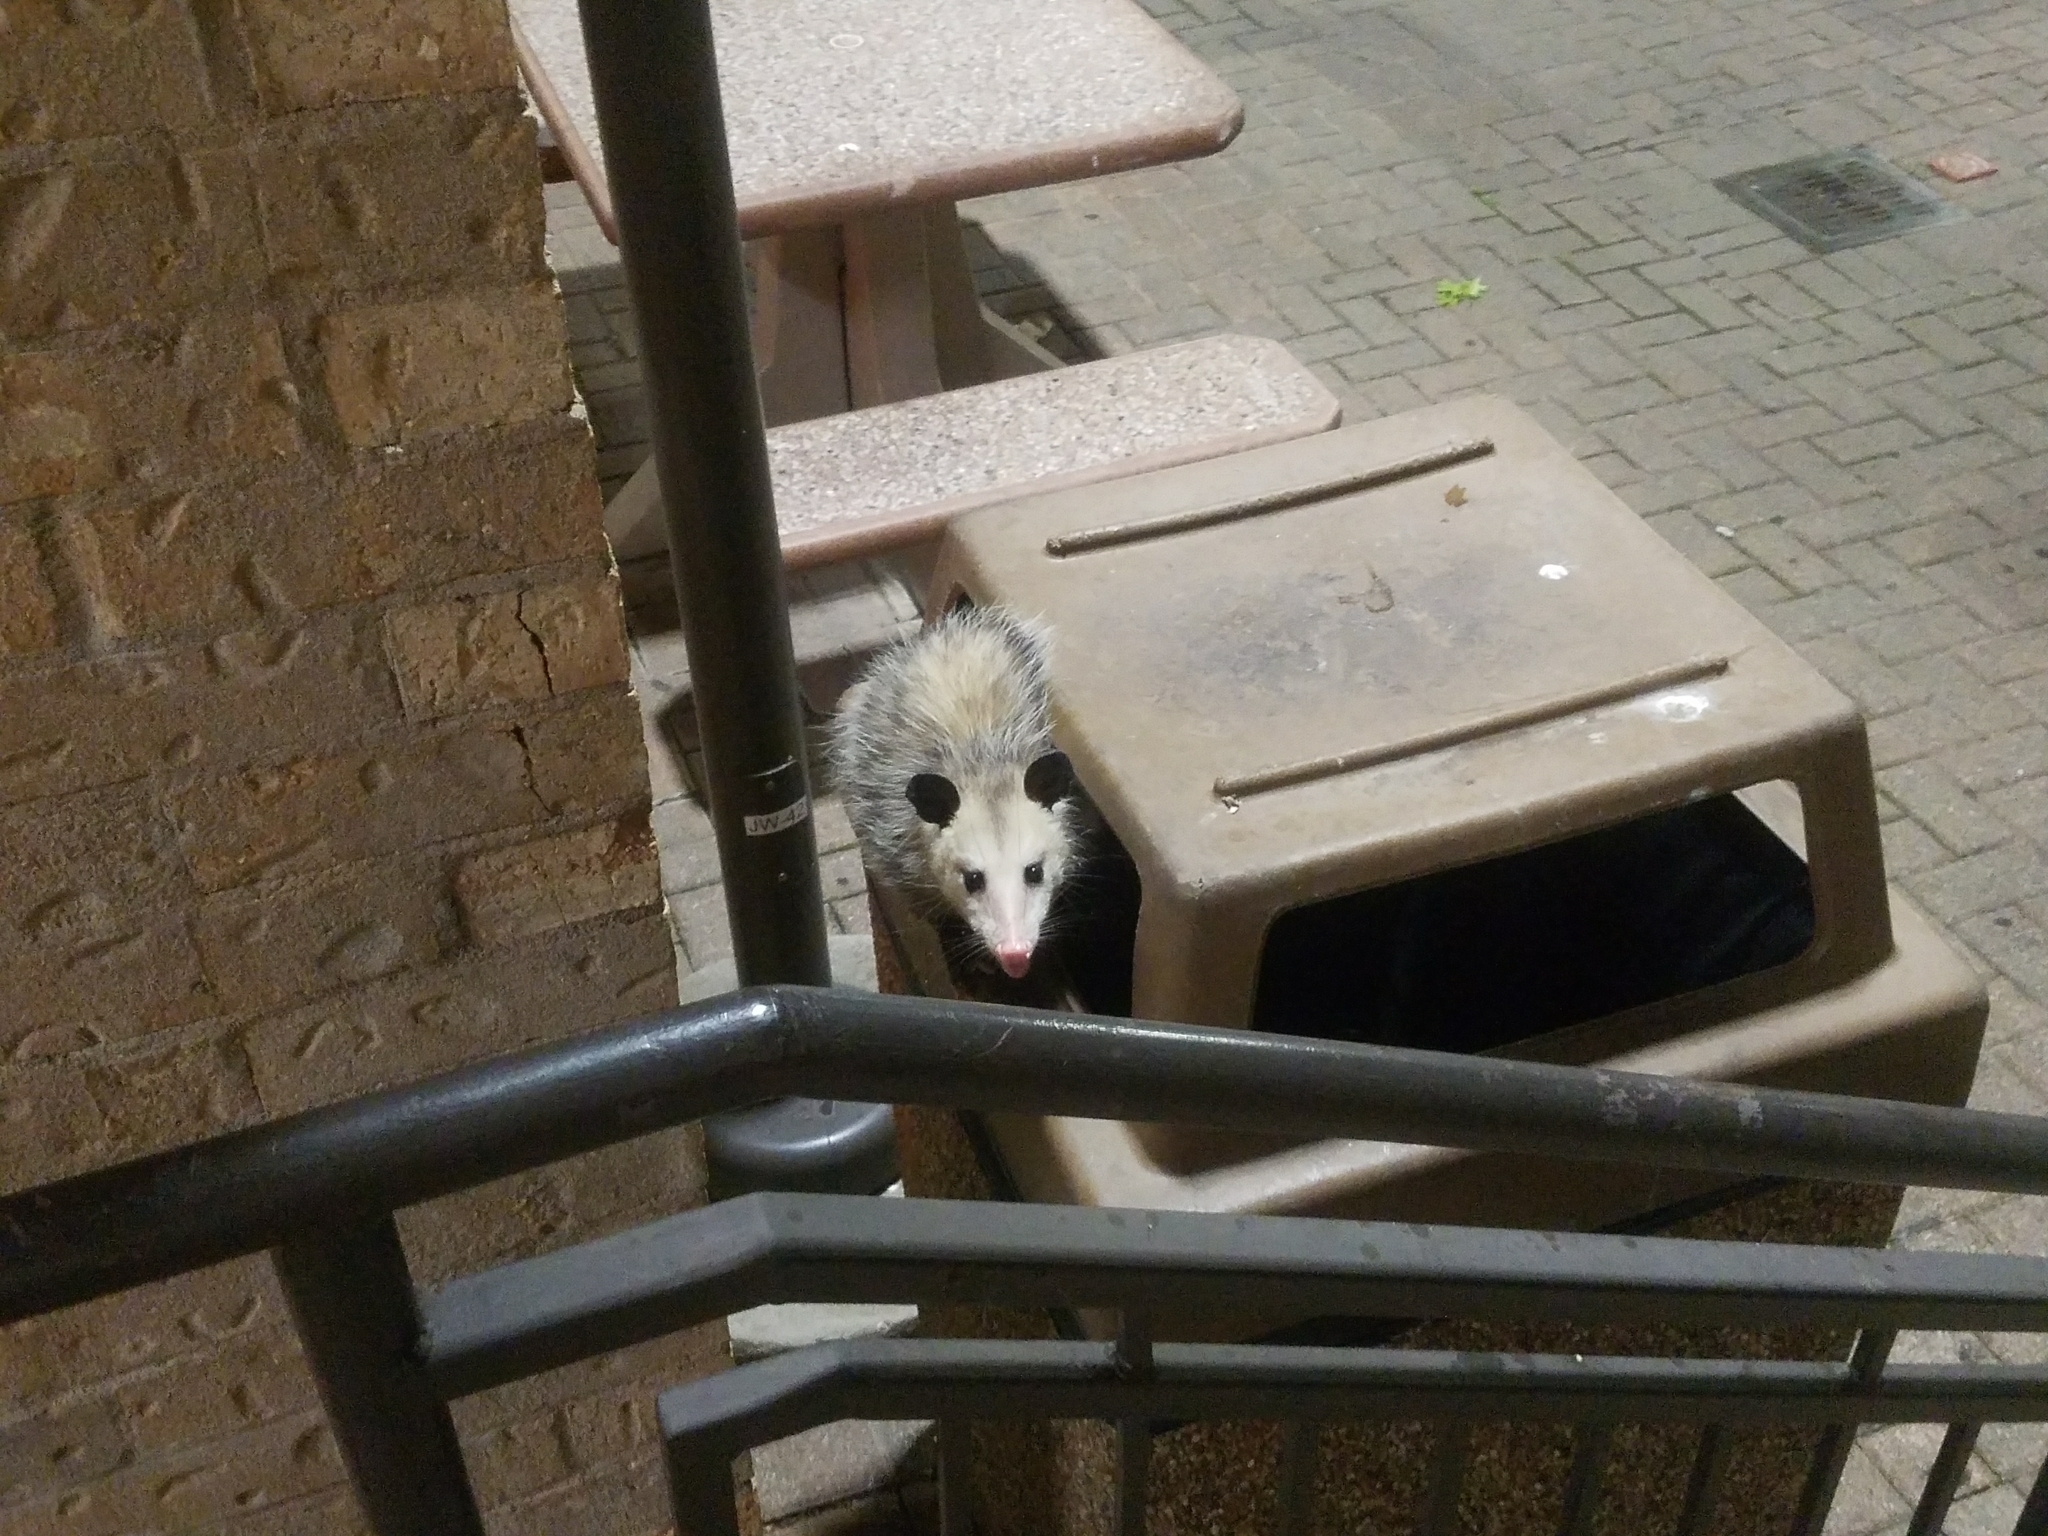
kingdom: Animalia
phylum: Chordata
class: Mammalia
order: Didelphimorphia
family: Didelphidae
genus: Didelphis
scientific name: Didelphis virginiana
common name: Virginia opossum
